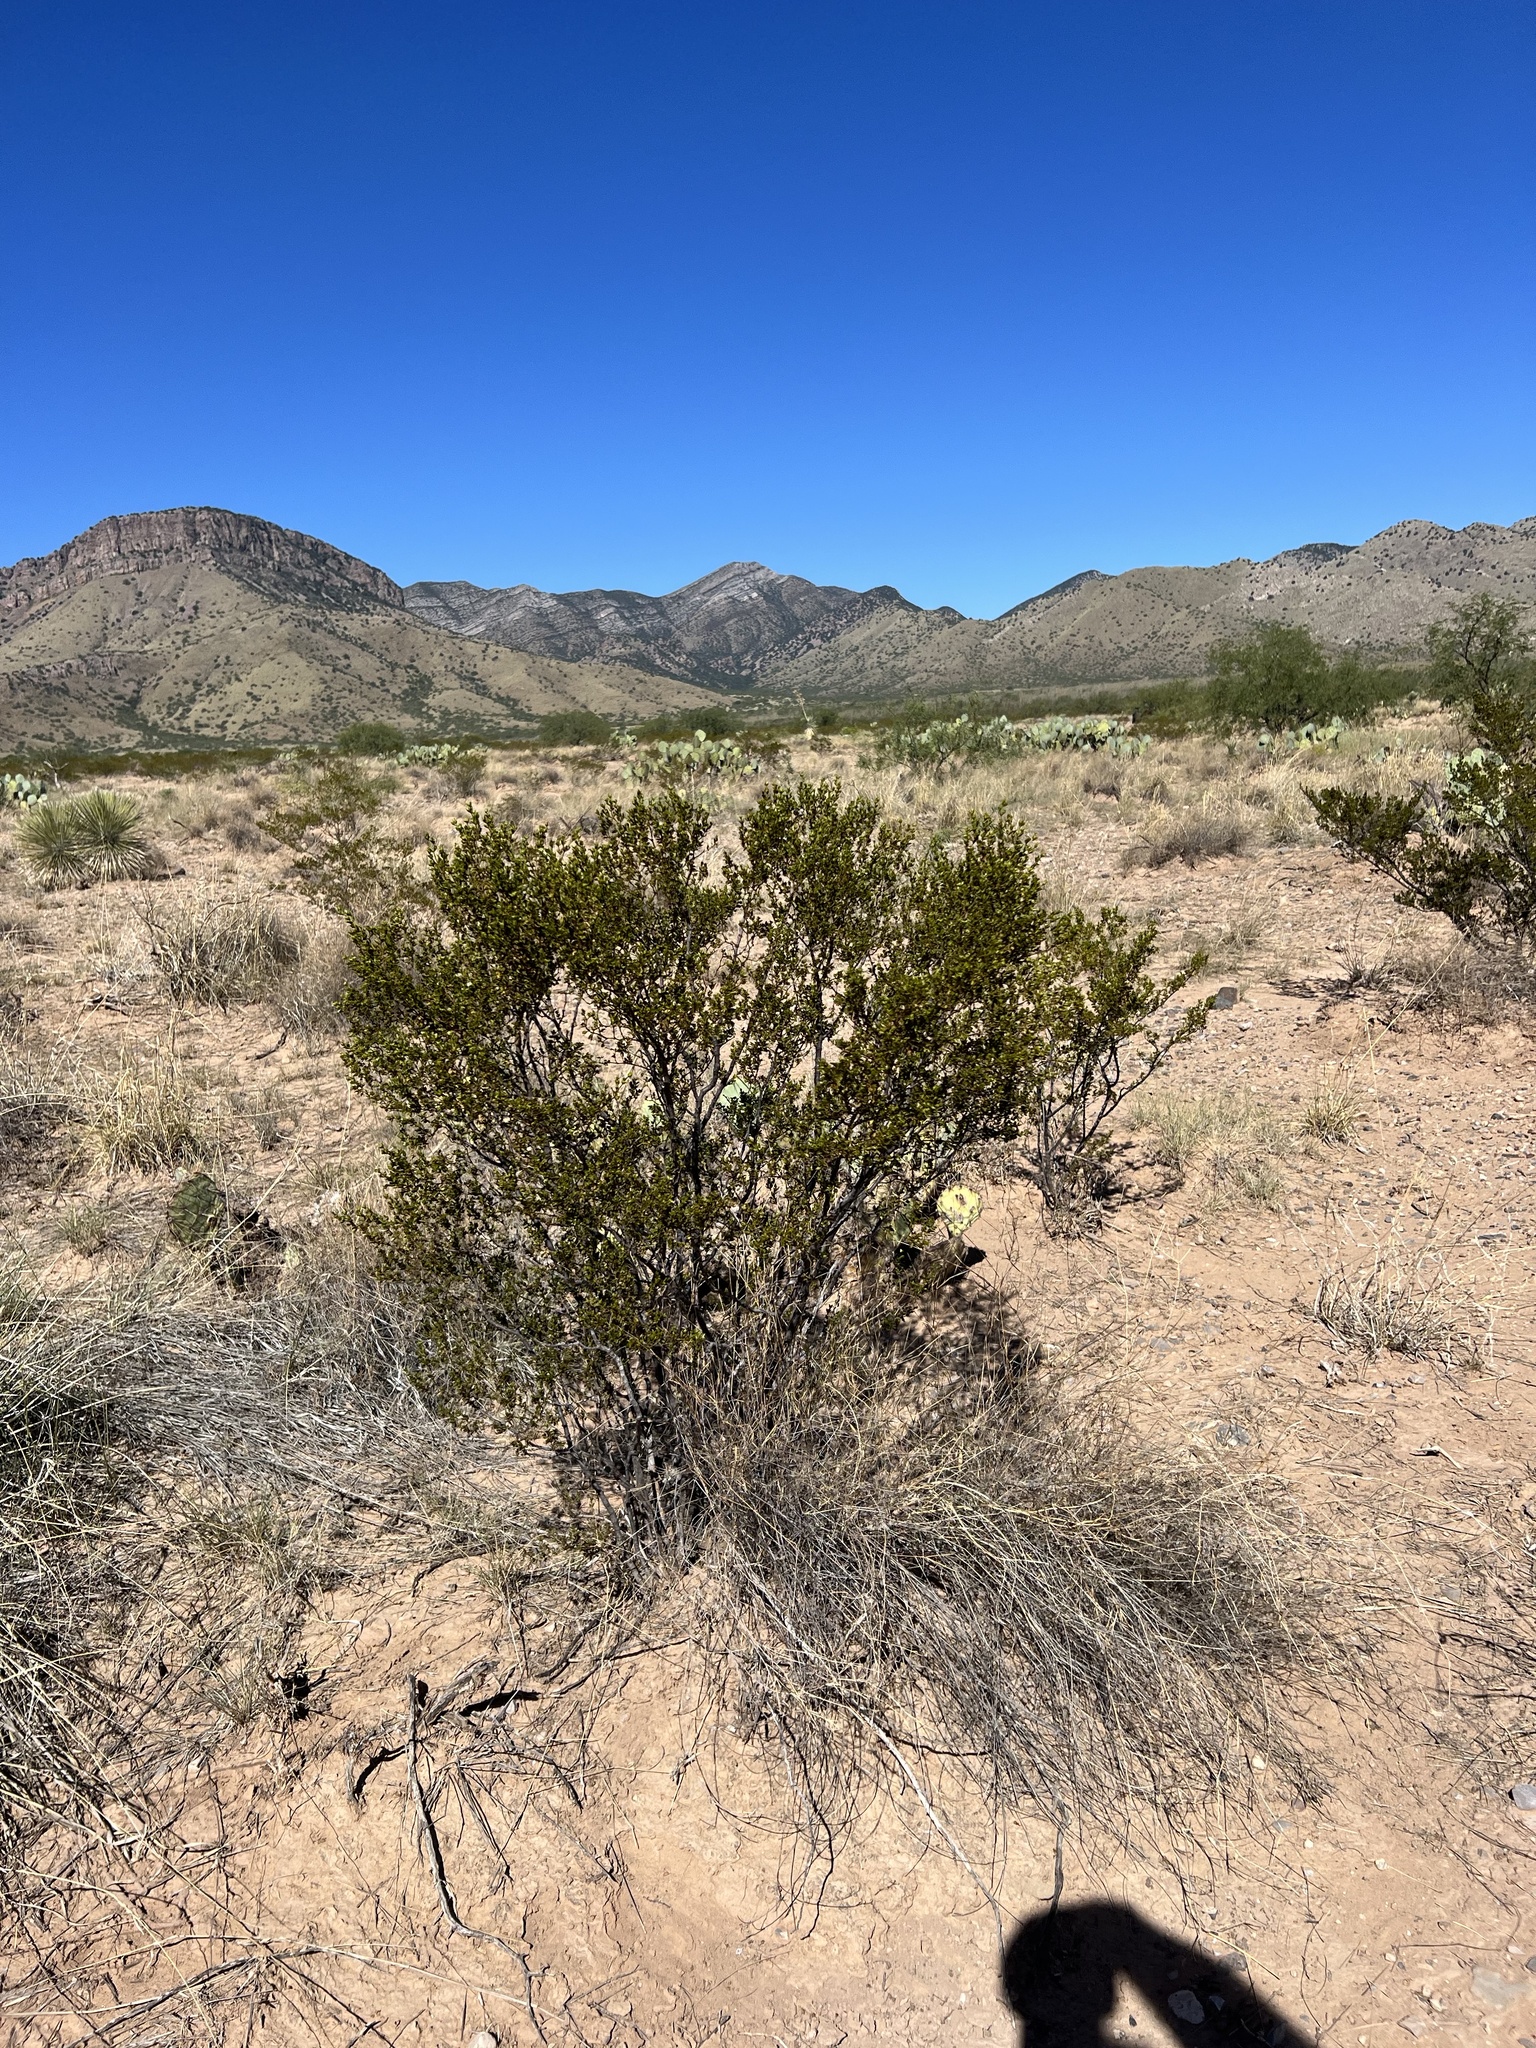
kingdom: Plantae
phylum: Tracheophyta
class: Magnoliopsida
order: Zygophyllales
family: Zygophyllaceae
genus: Larrea
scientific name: Larrea tridentata
